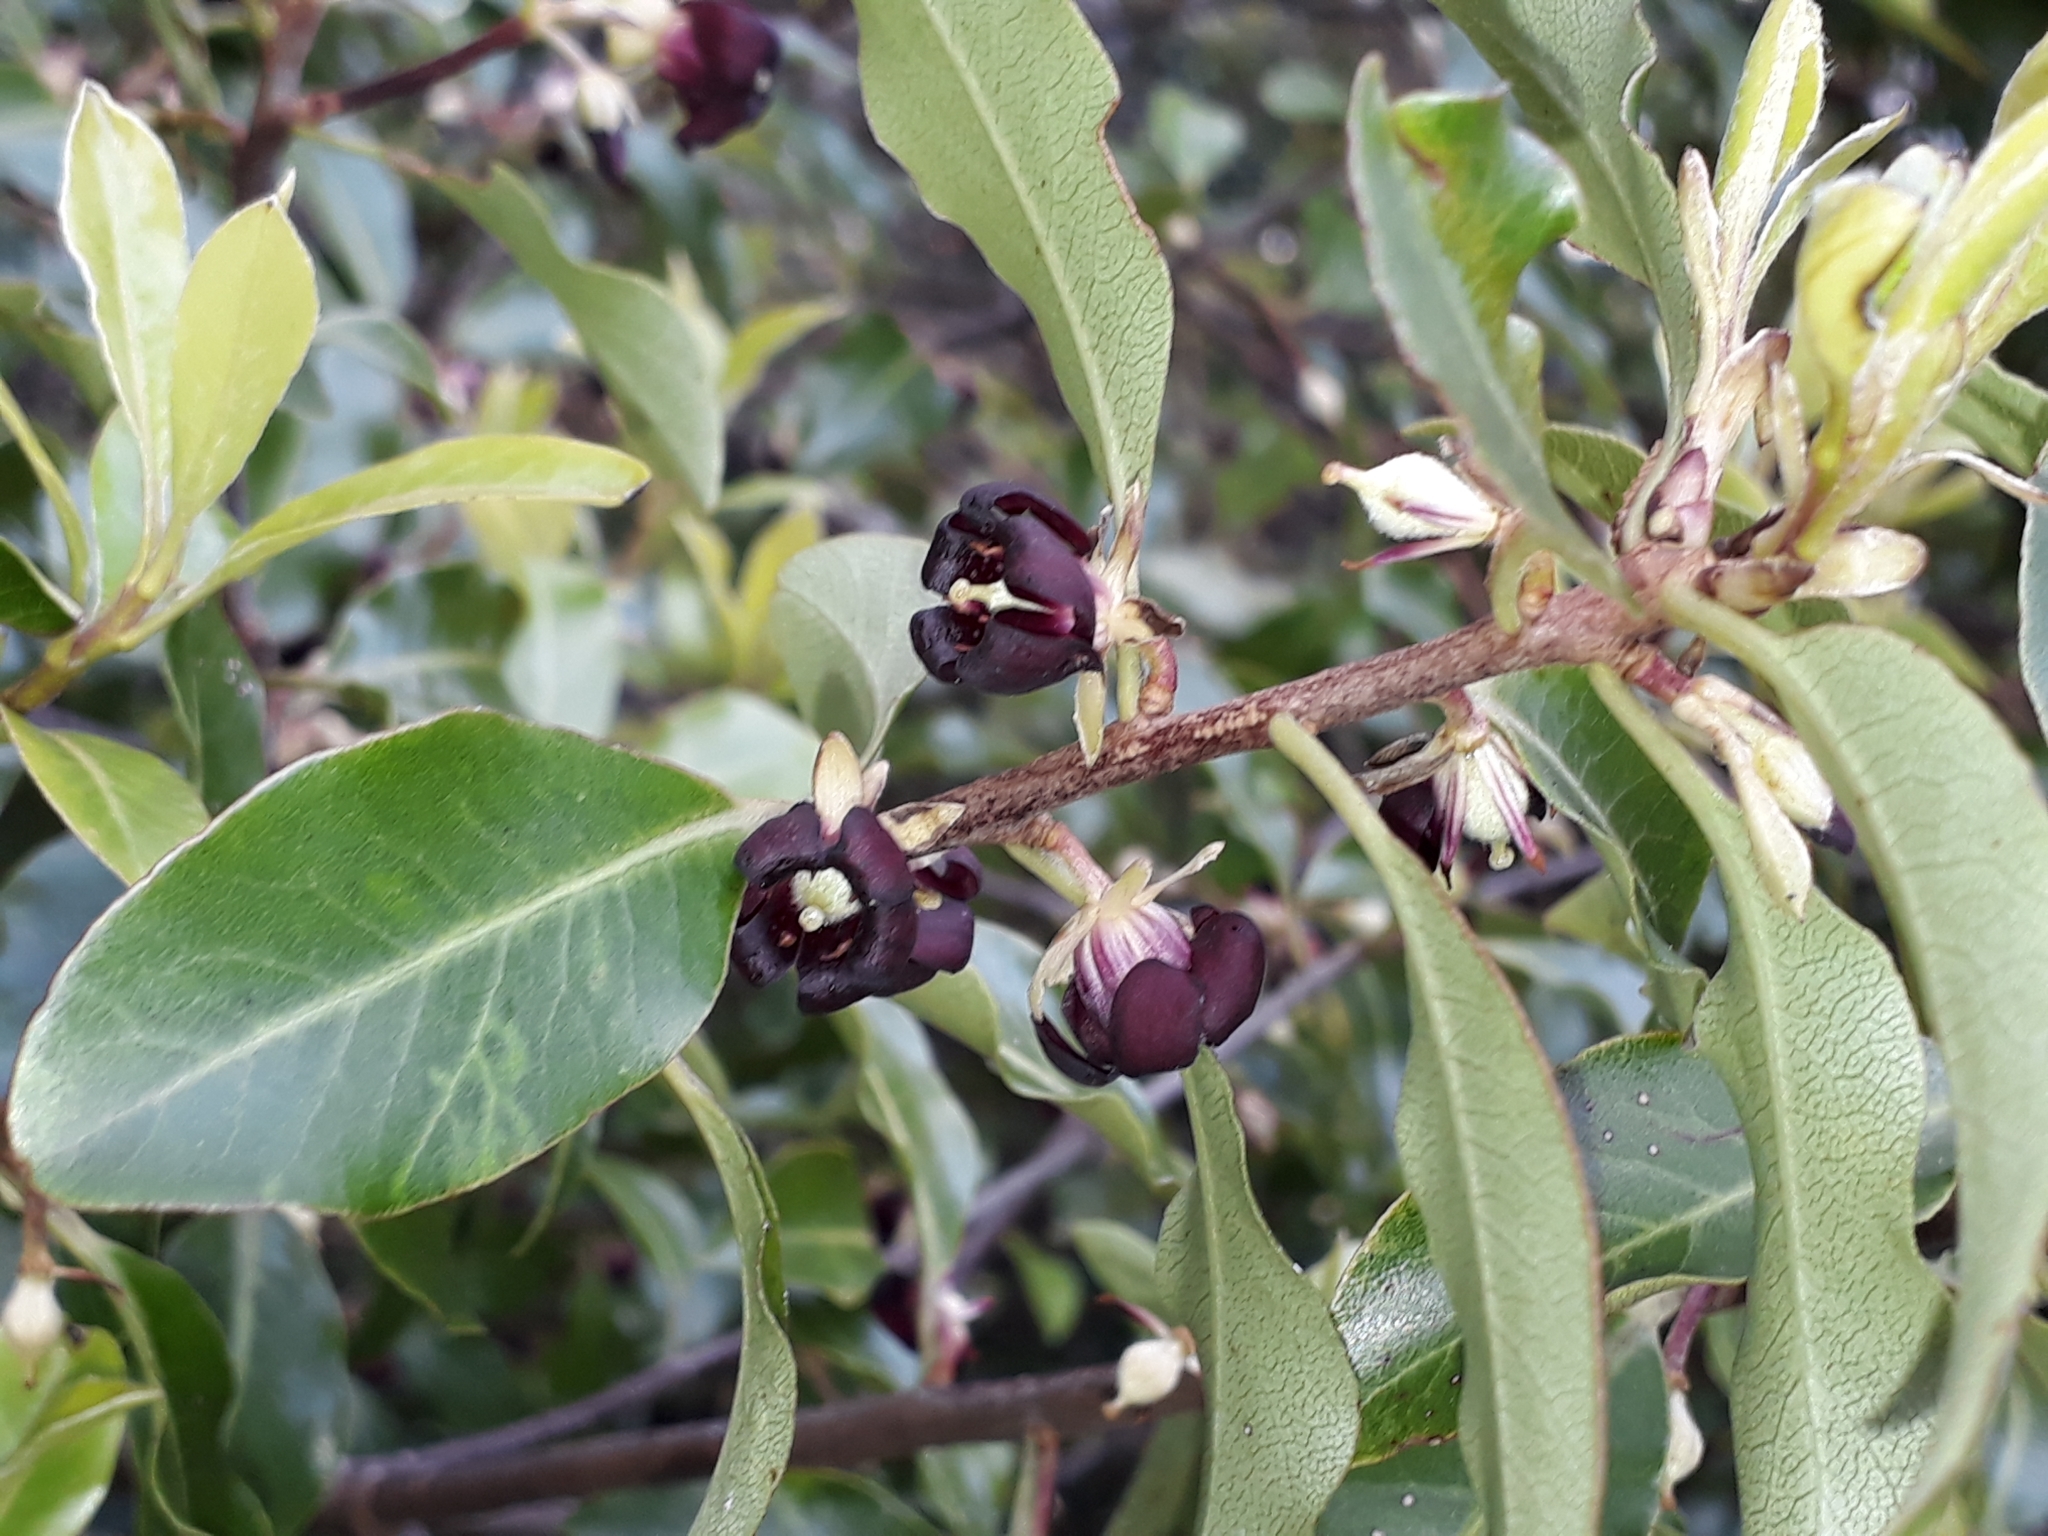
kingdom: Plantae
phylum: Tracheophyta
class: Magnoliopsida
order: Apiales
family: Pittosporaceae
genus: Pittosporum
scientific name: Pittosporum tenuifolium
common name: Kohuhu
